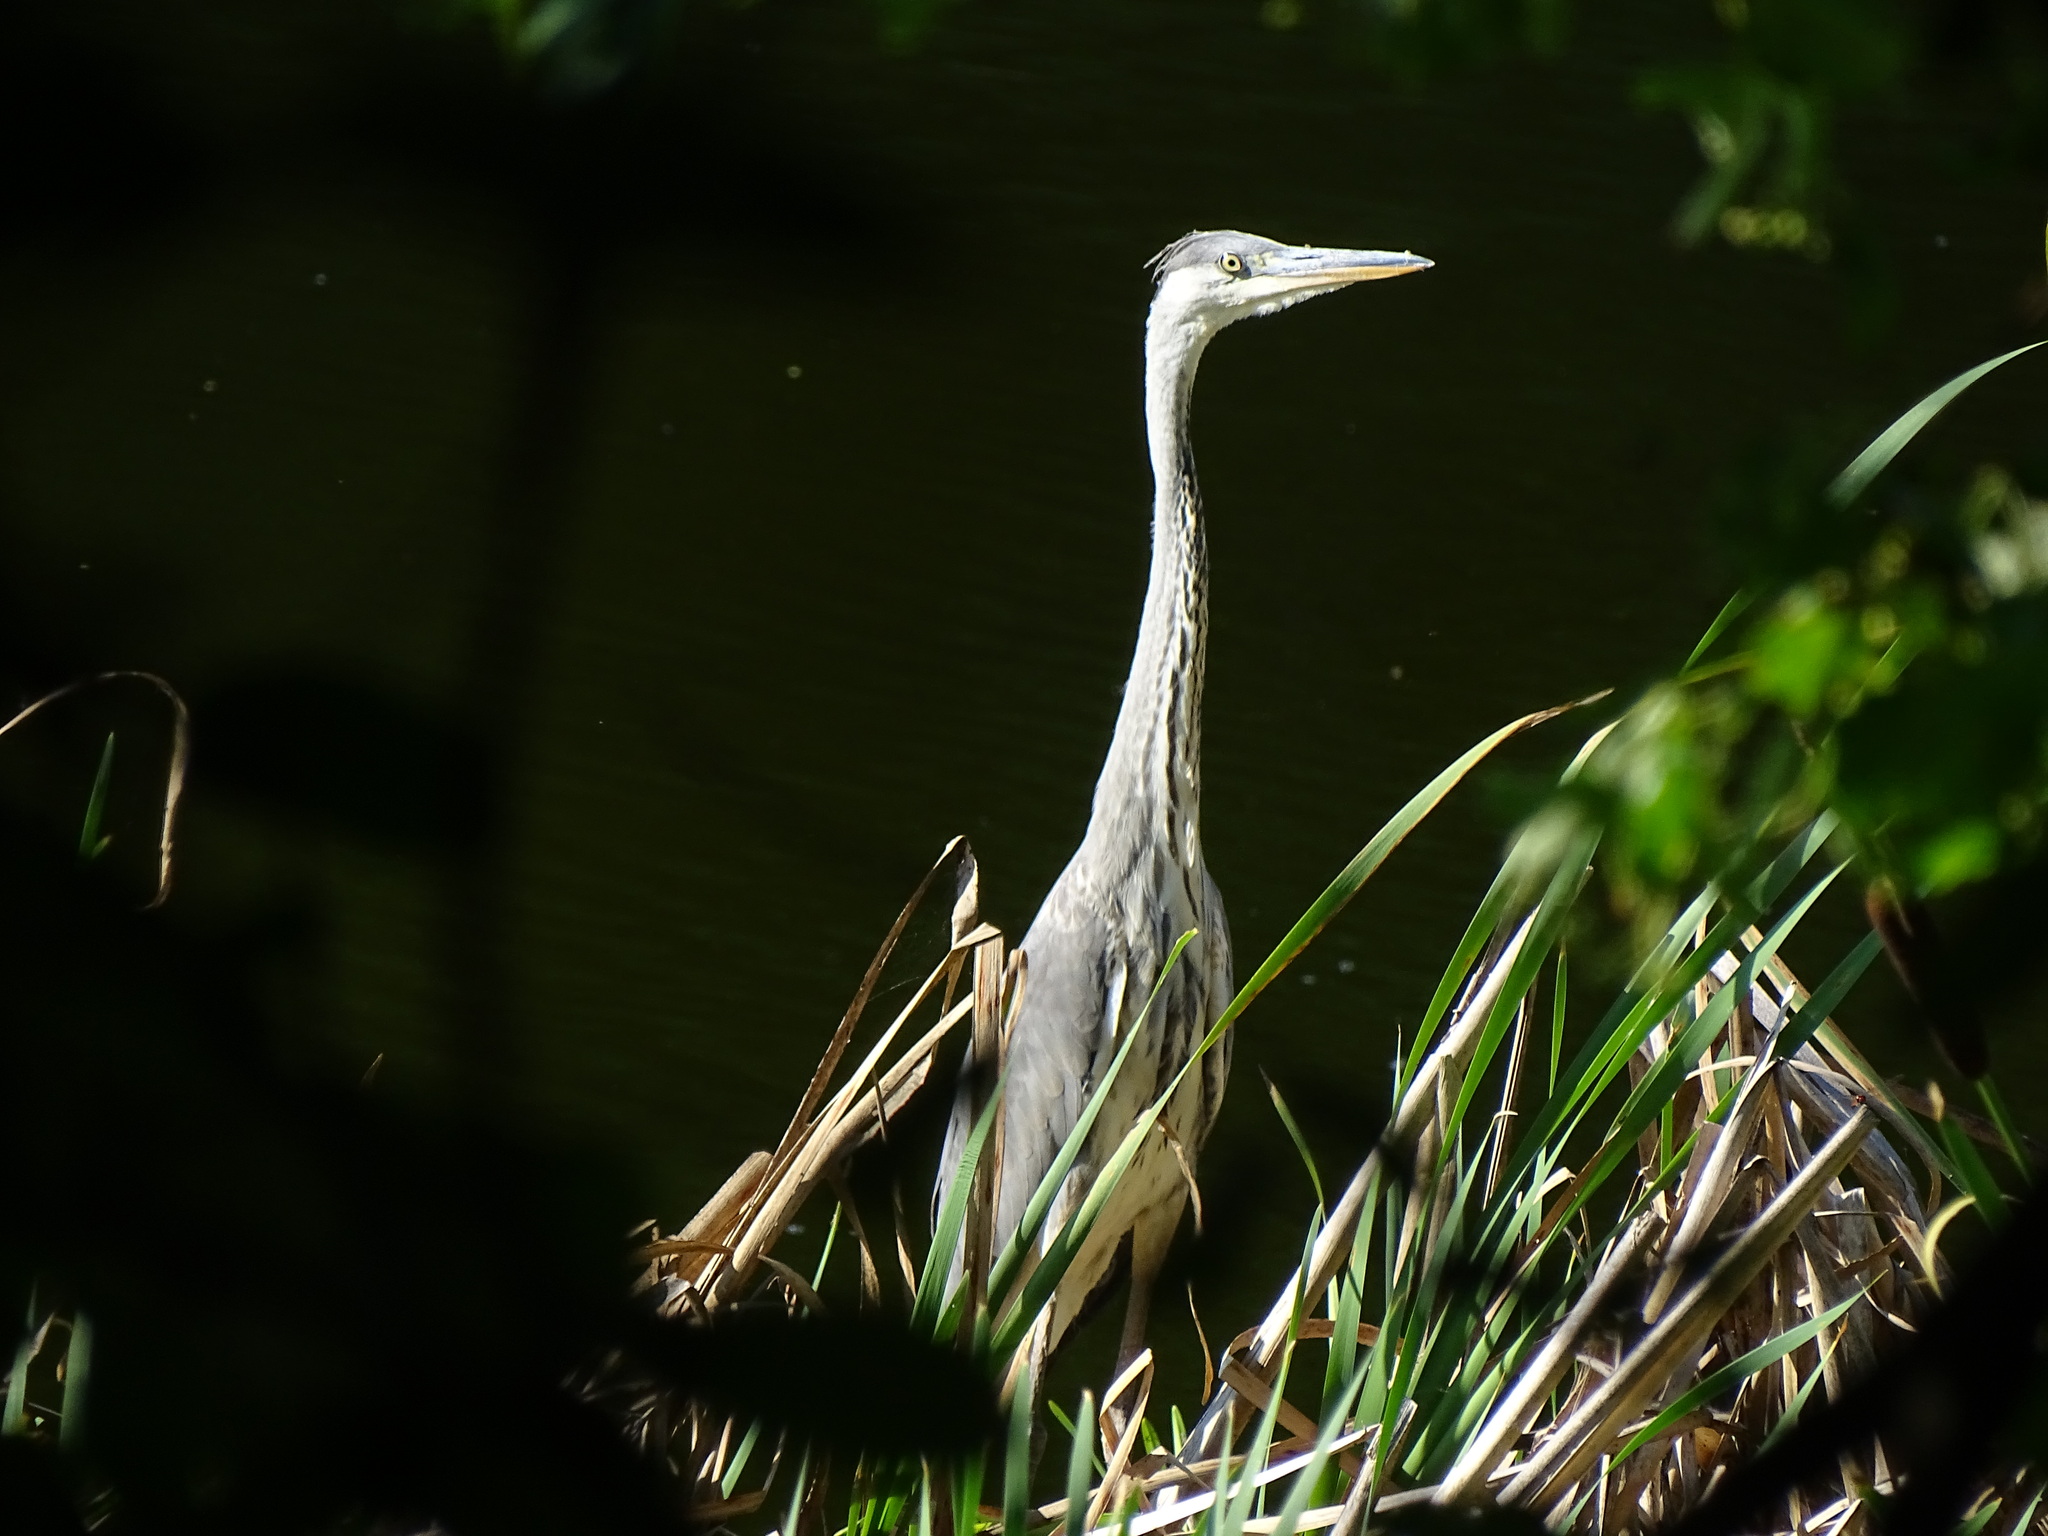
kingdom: Animalia
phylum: Chordata
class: Aves
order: Pelecaniformes
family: Ardeidae
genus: Ardea
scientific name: Ardea cinerea
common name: Grey heron
